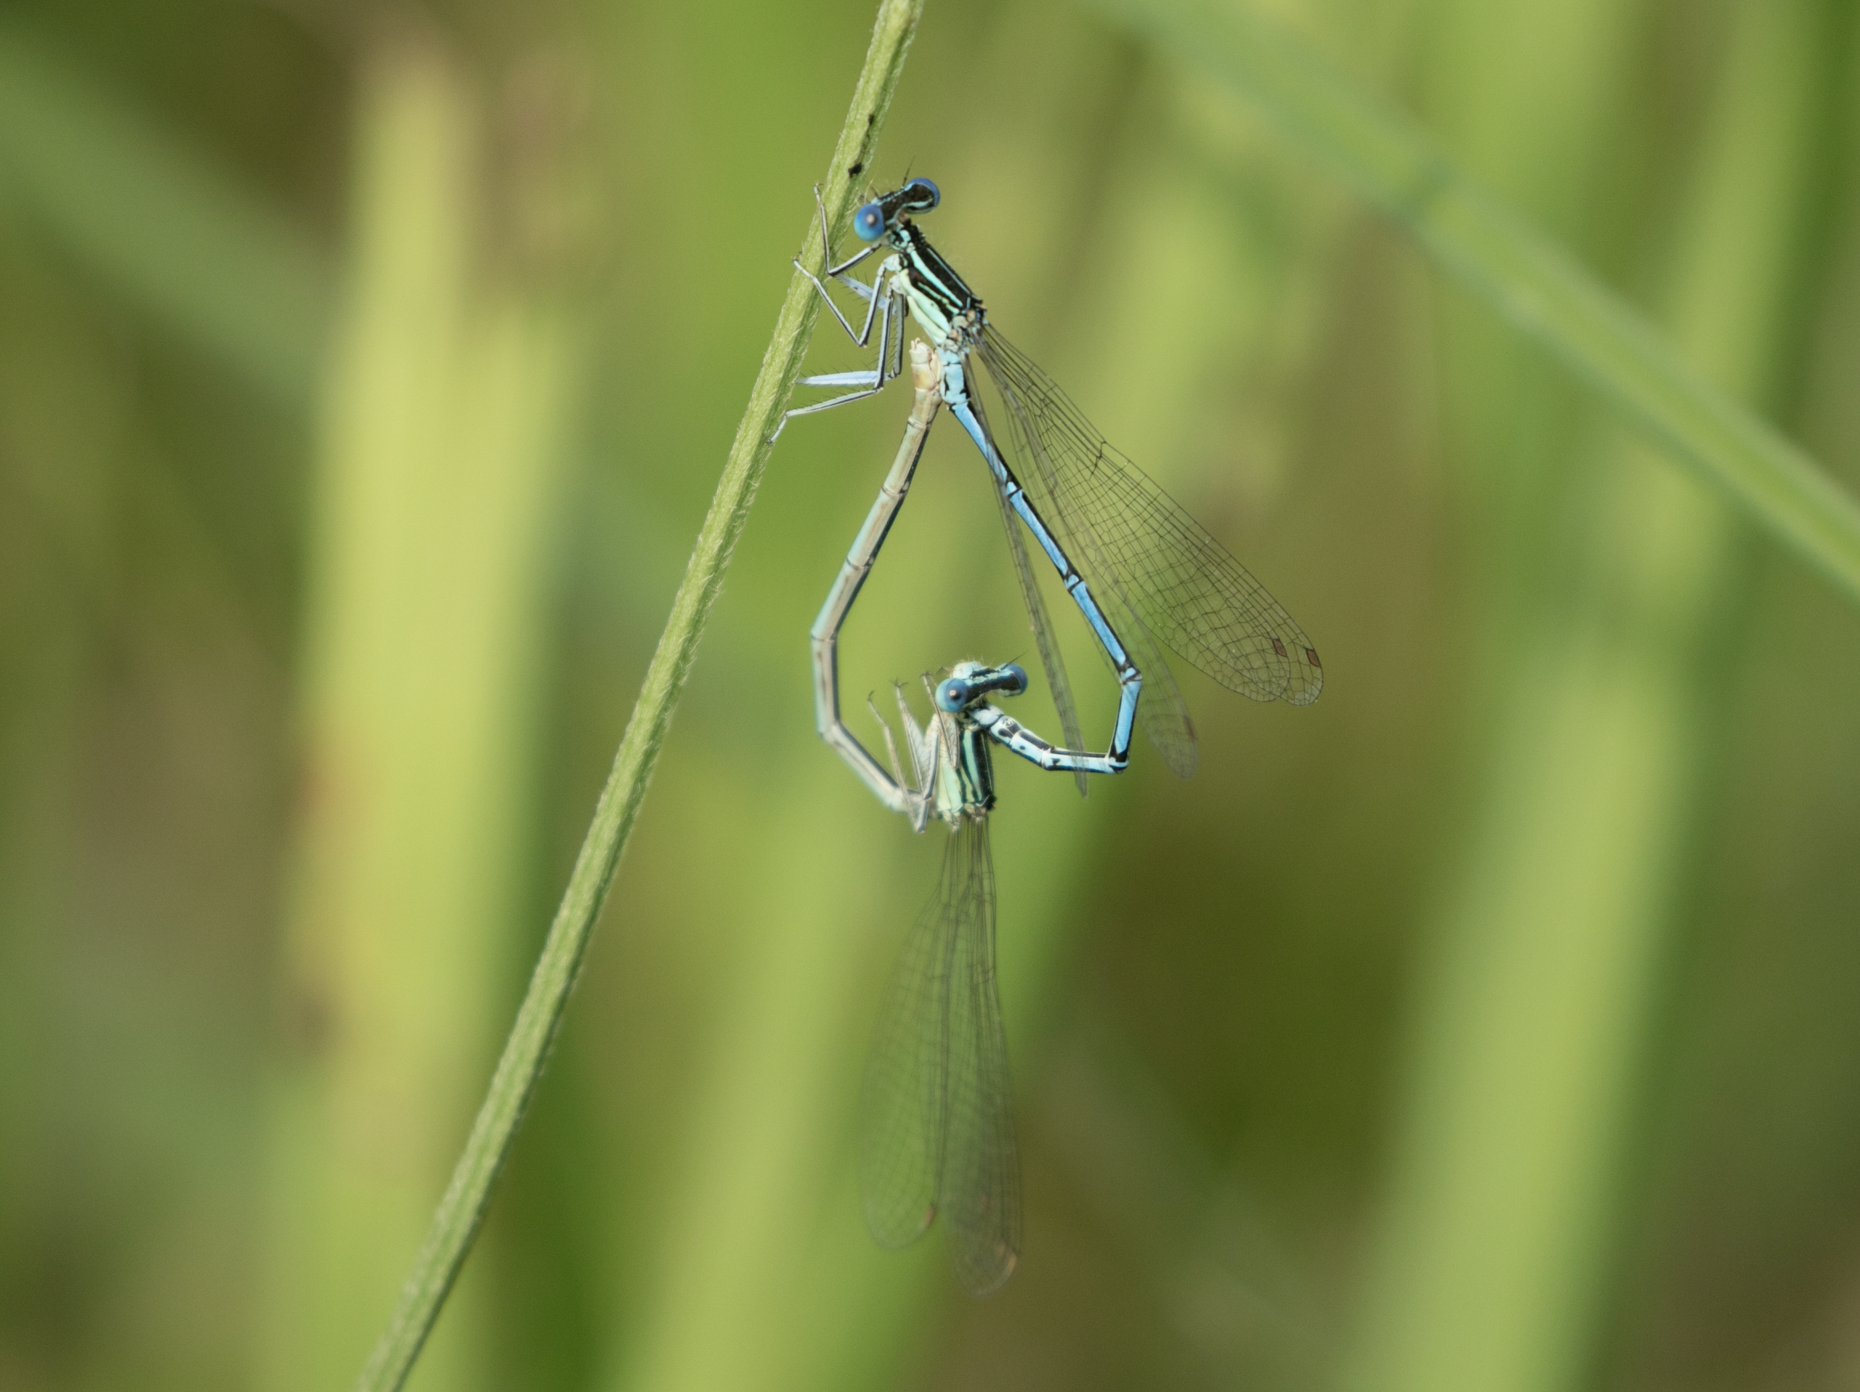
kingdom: Animalia
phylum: Arthropoda
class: Insecta
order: Odonata
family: Platycnemididae
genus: Platycnemis
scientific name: Platycnemis pennipes
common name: White-legged damselfly
